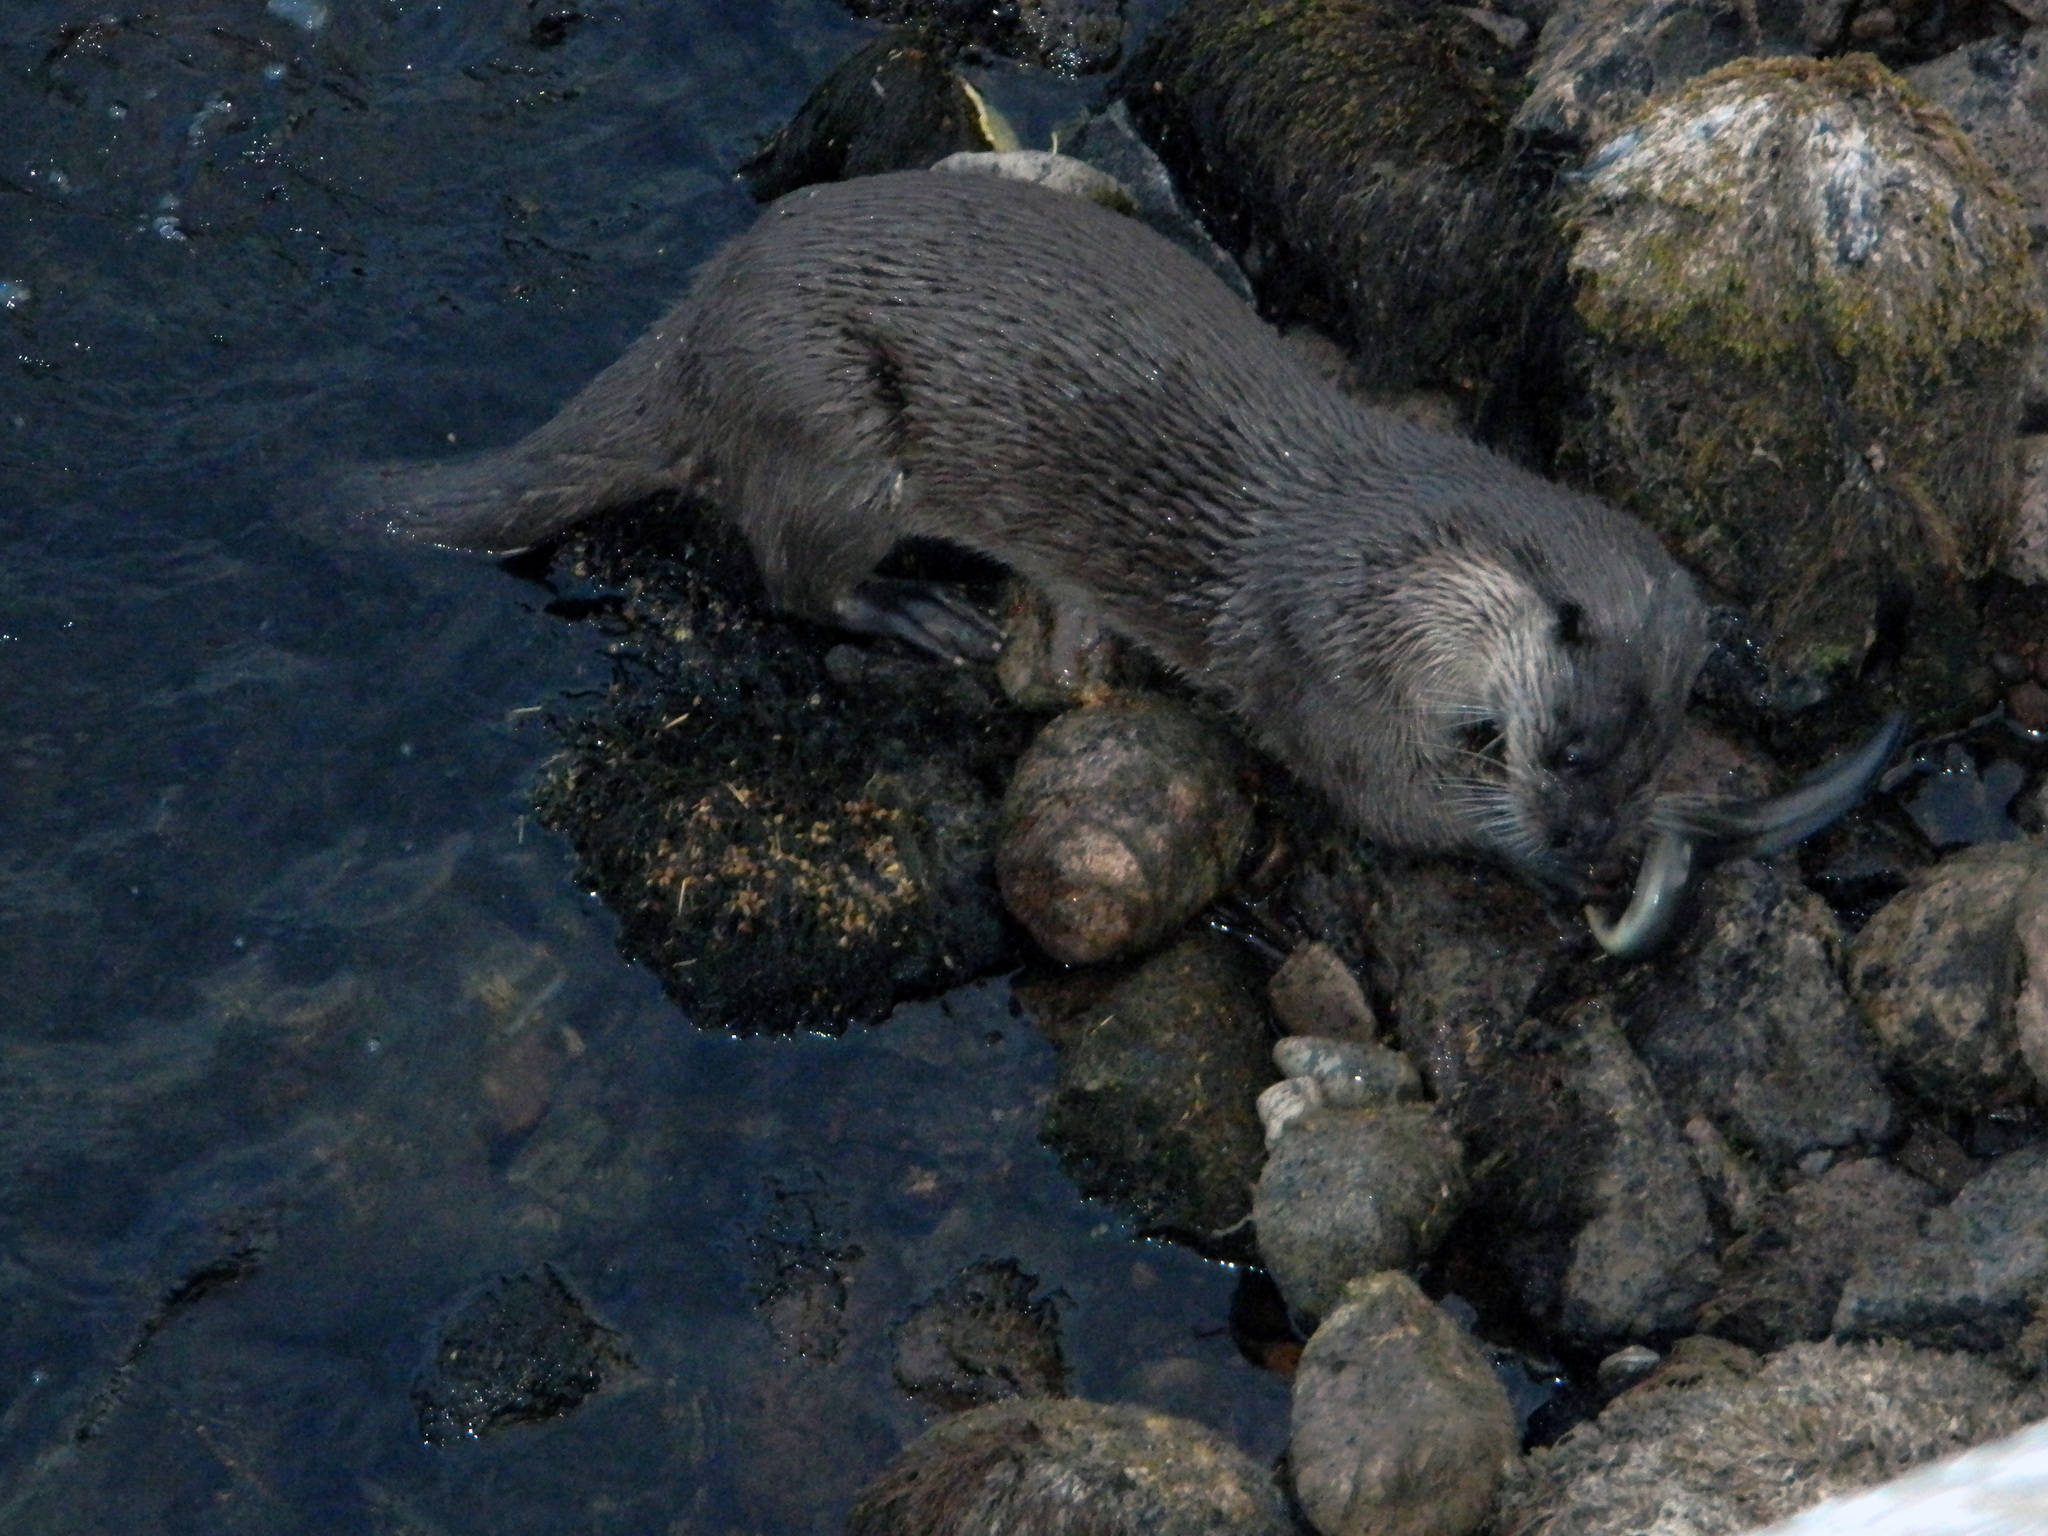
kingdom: Animalia
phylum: Chordata
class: Mammalia
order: Carnivora
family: Mustelidae
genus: Lutra
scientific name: Lutra lutra
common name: European otter
